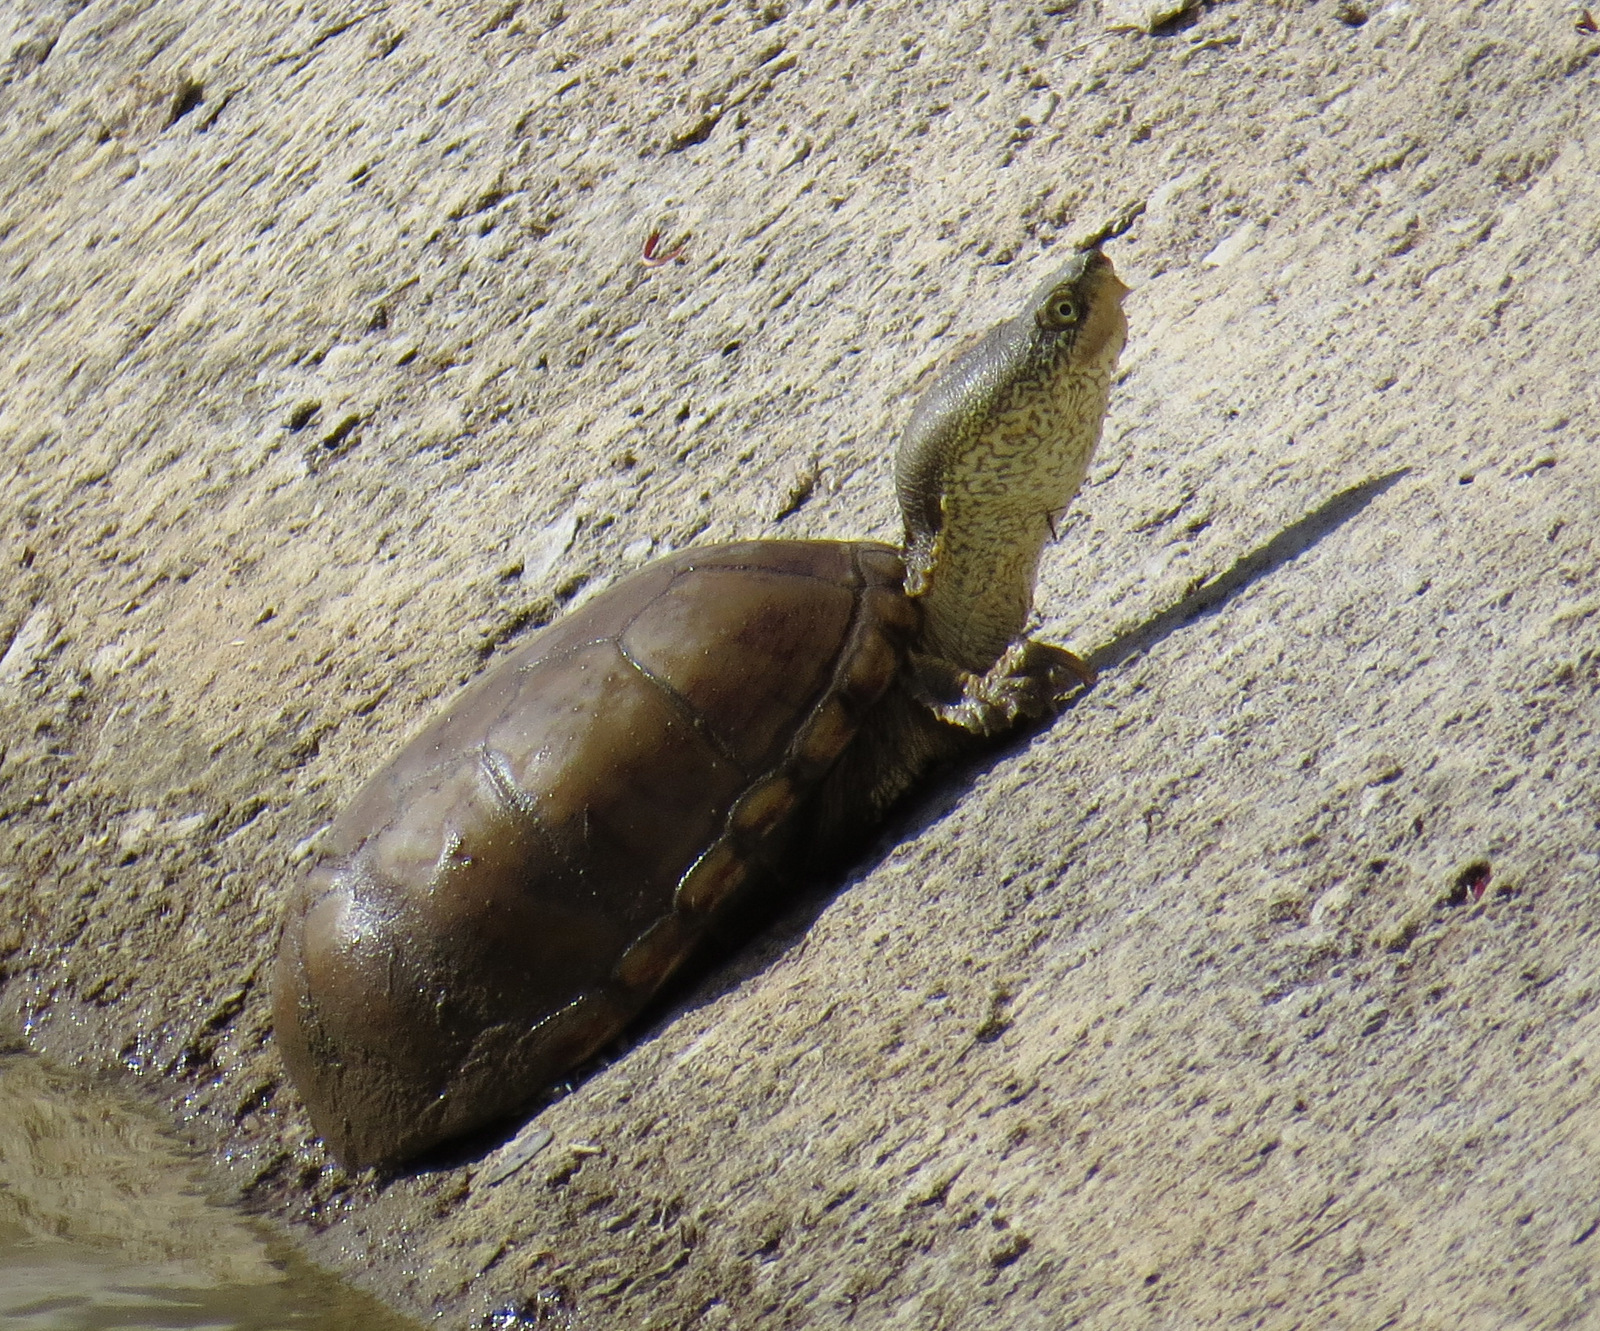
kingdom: Animalia
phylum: Chordata
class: Testudines
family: Kinosternidae
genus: Kinosternon
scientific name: Kinosternon flavescens
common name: Yellow mud turtle
